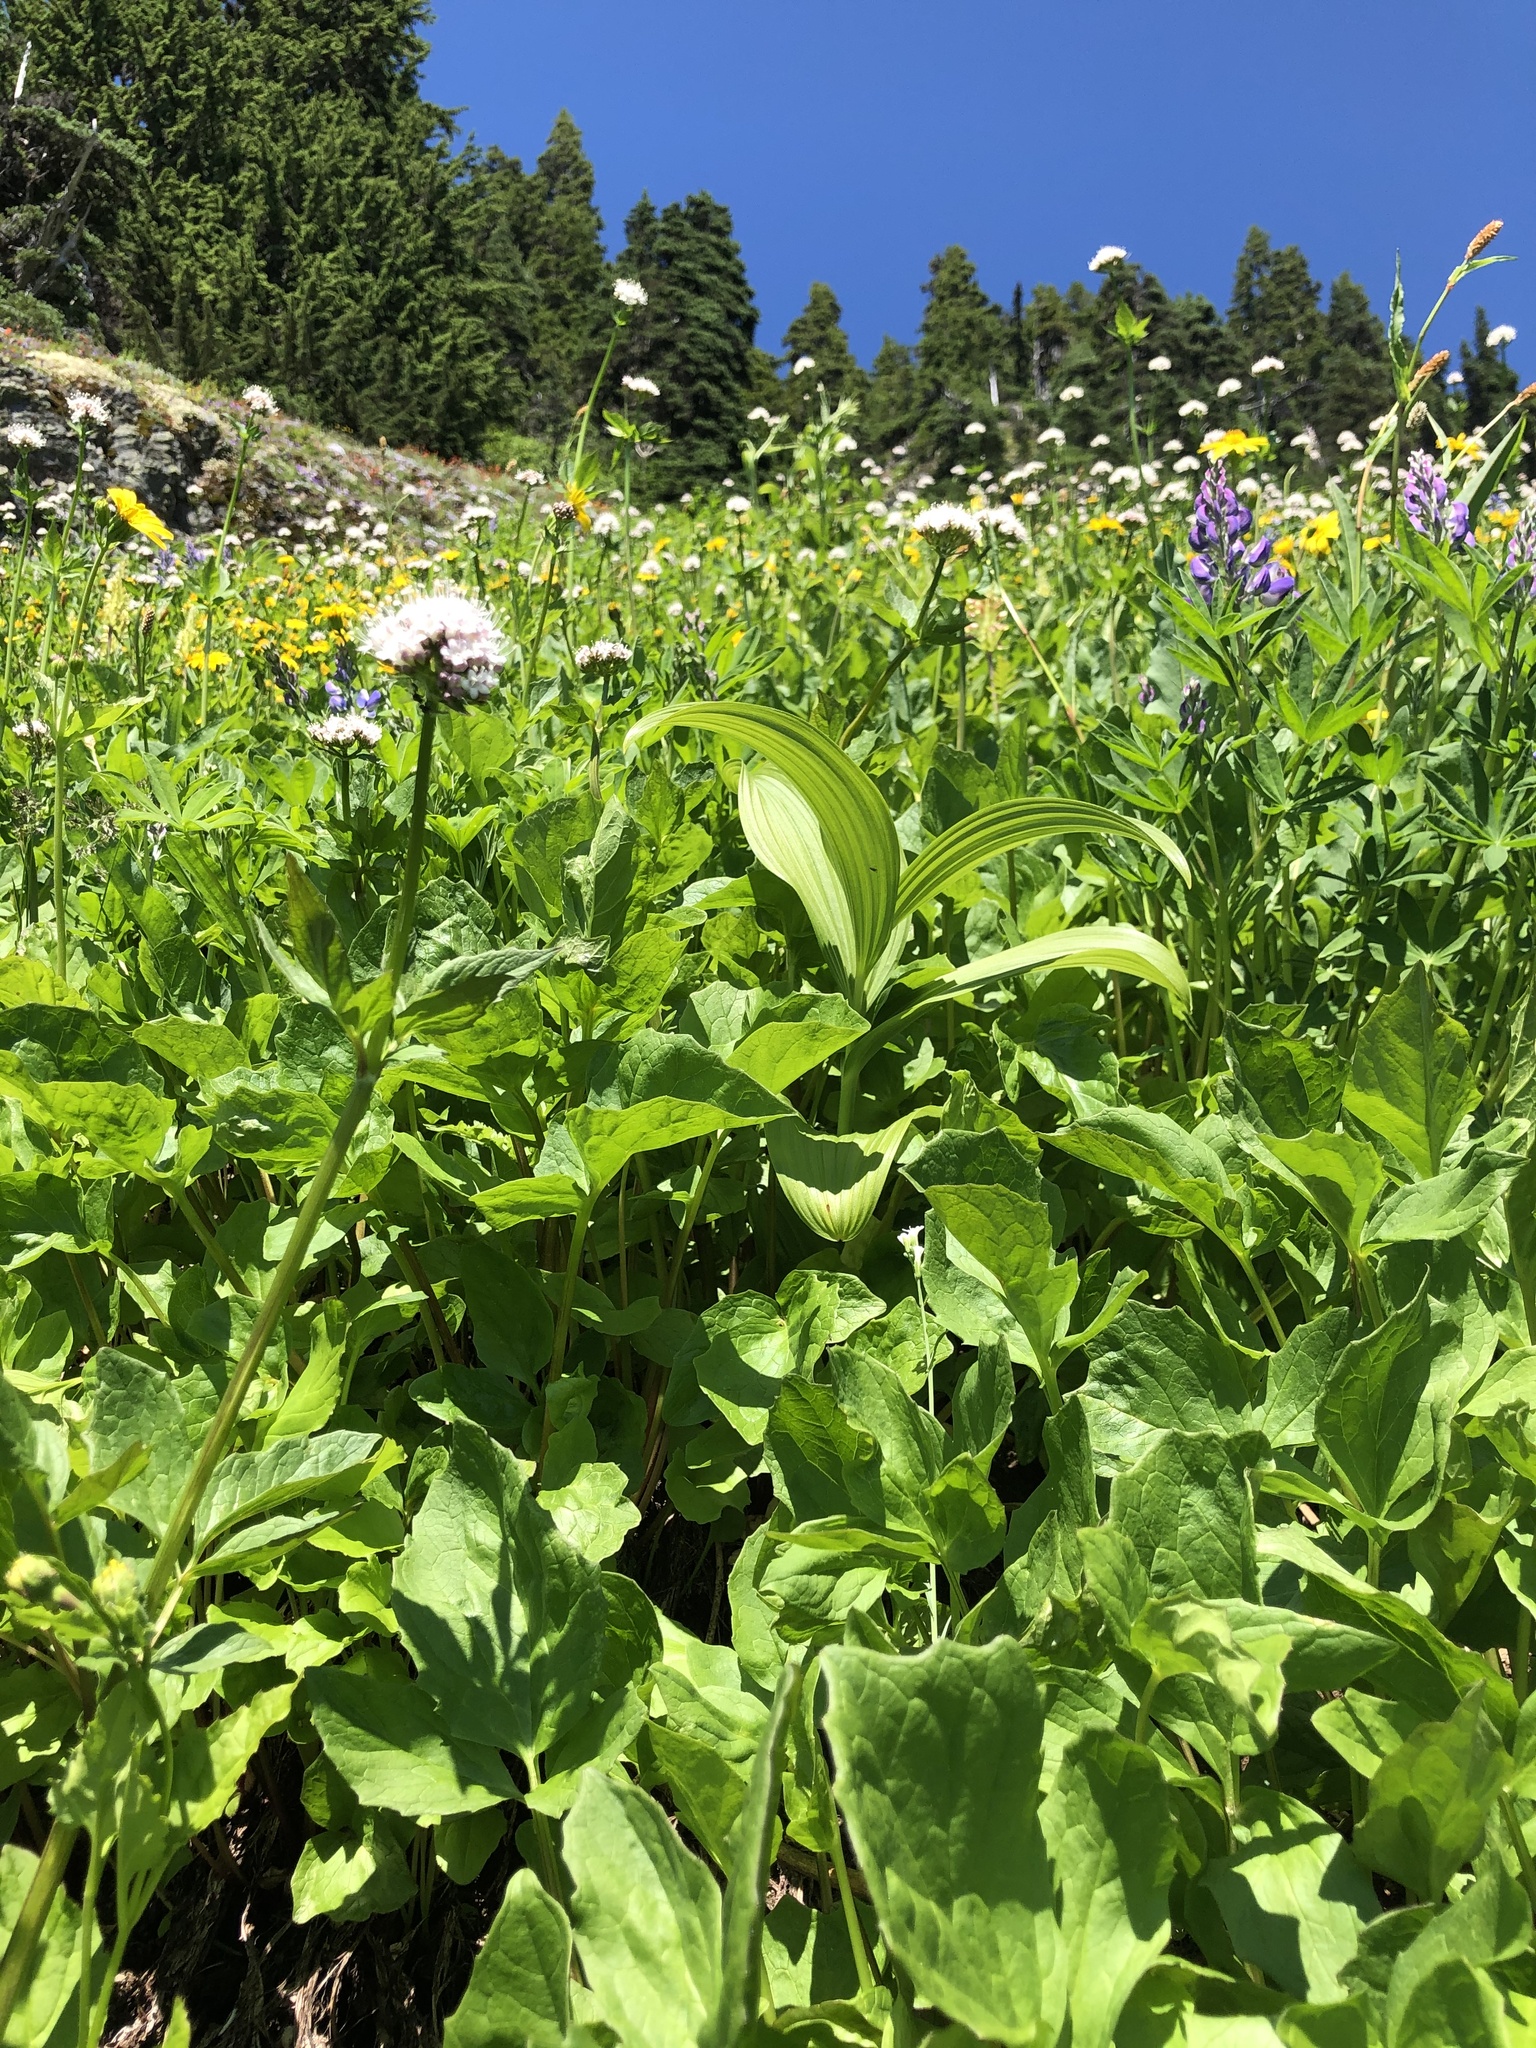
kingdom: Plantae
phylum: Tracheophyta
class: Liliopsida
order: Liliales
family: Melanthiaceae
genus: Veratrum
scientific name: Veratrum viride
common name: American false hellebore
